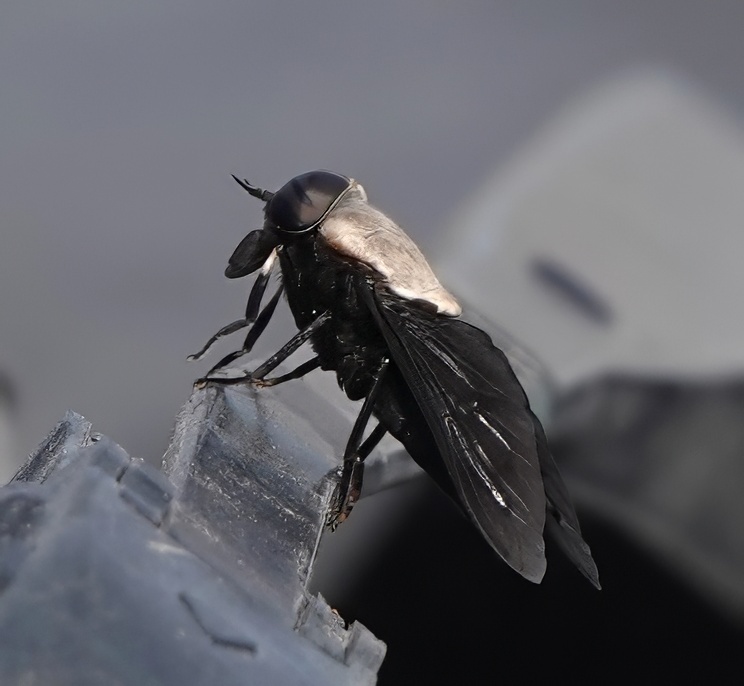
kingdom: Animalia
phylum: Arthropoda
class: Insecta
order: Diptera
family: Tabanidae
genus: Tabanus
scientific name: Tabanus punctifer
